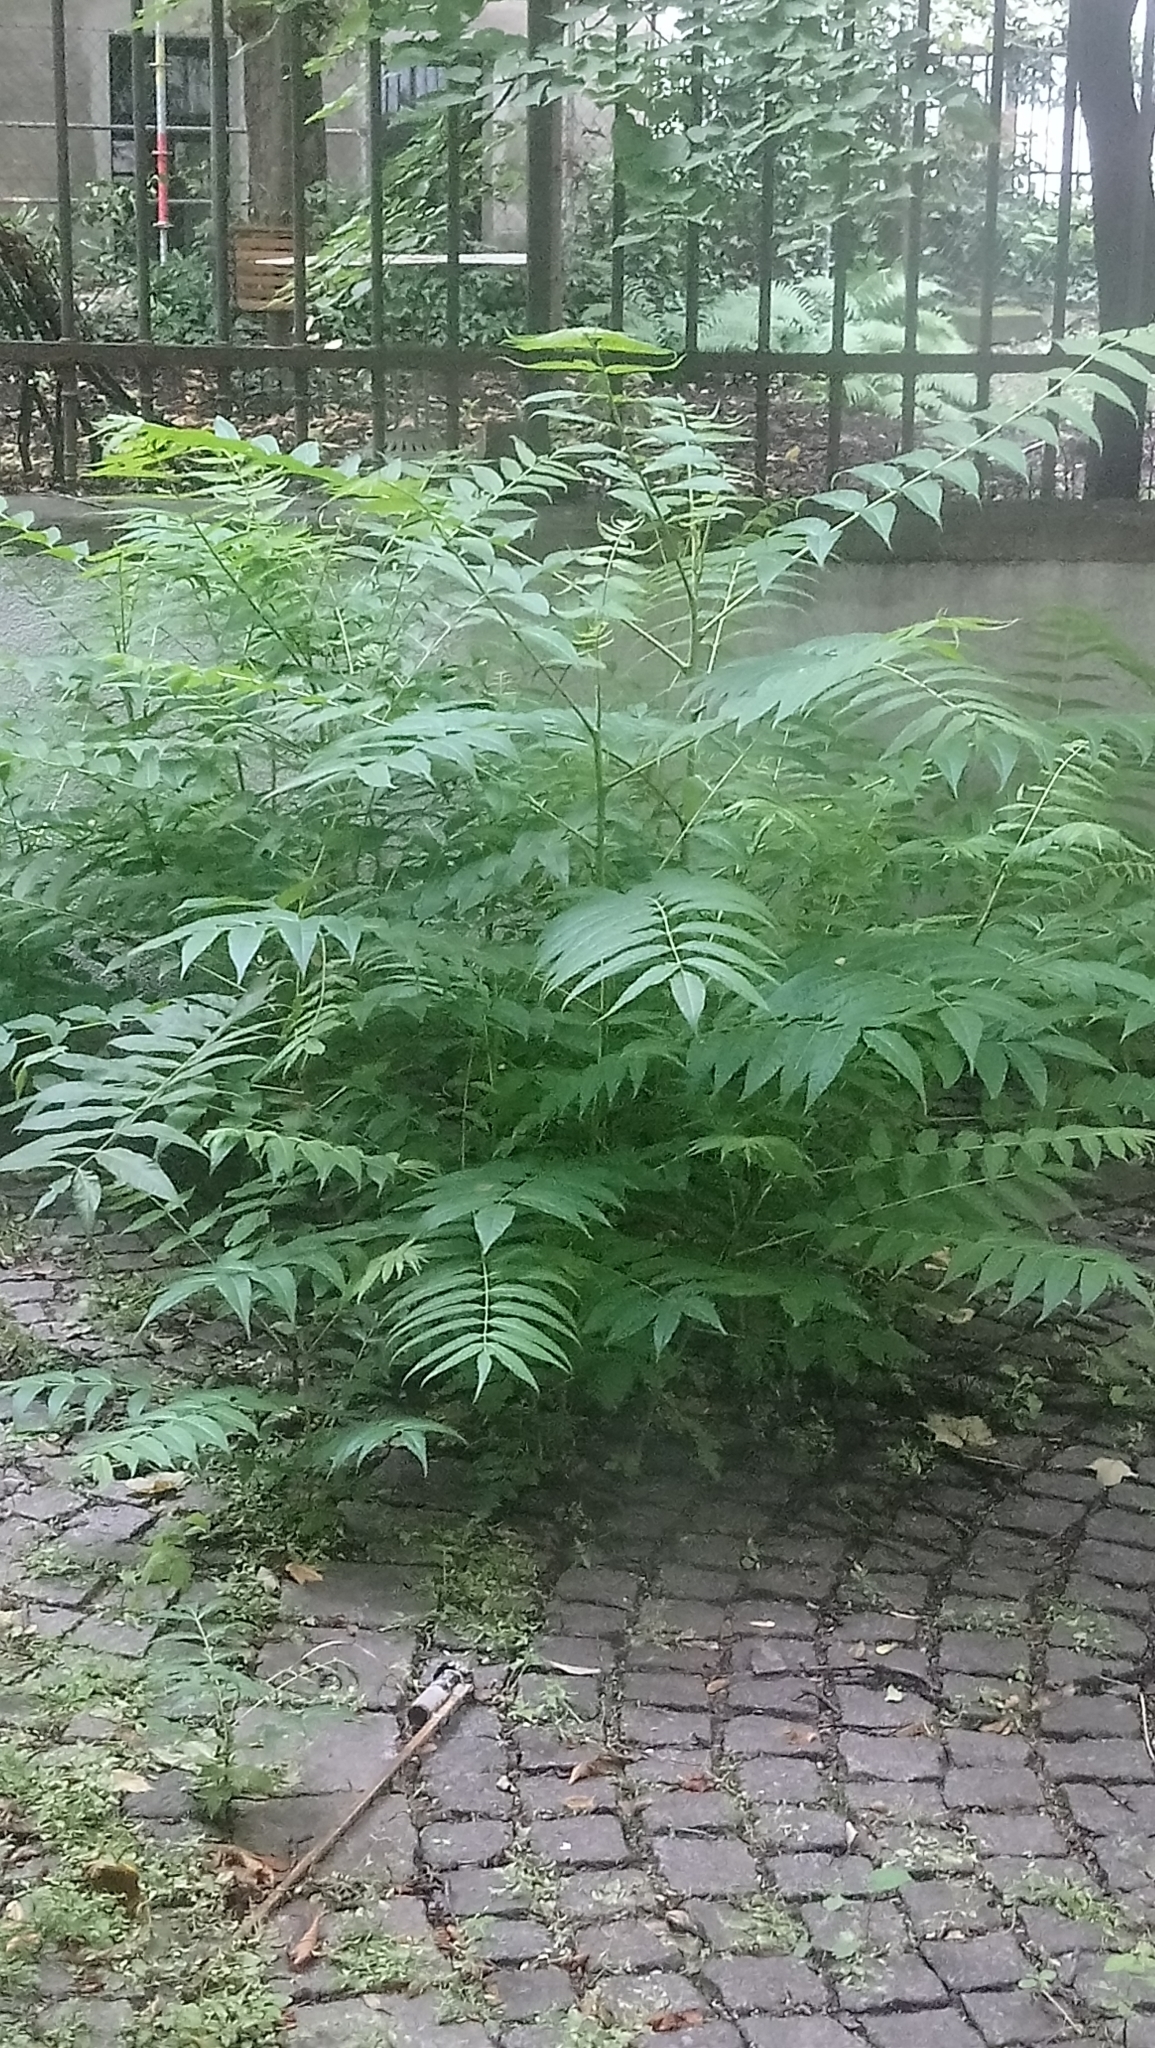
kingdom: Plantae
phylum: Tracheophyta
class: Magnoliopsida
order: Sapindales
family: Simaroubaceae
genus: Ailanthus
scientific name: Ailanthus altissima
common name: Tree-of-heaven
